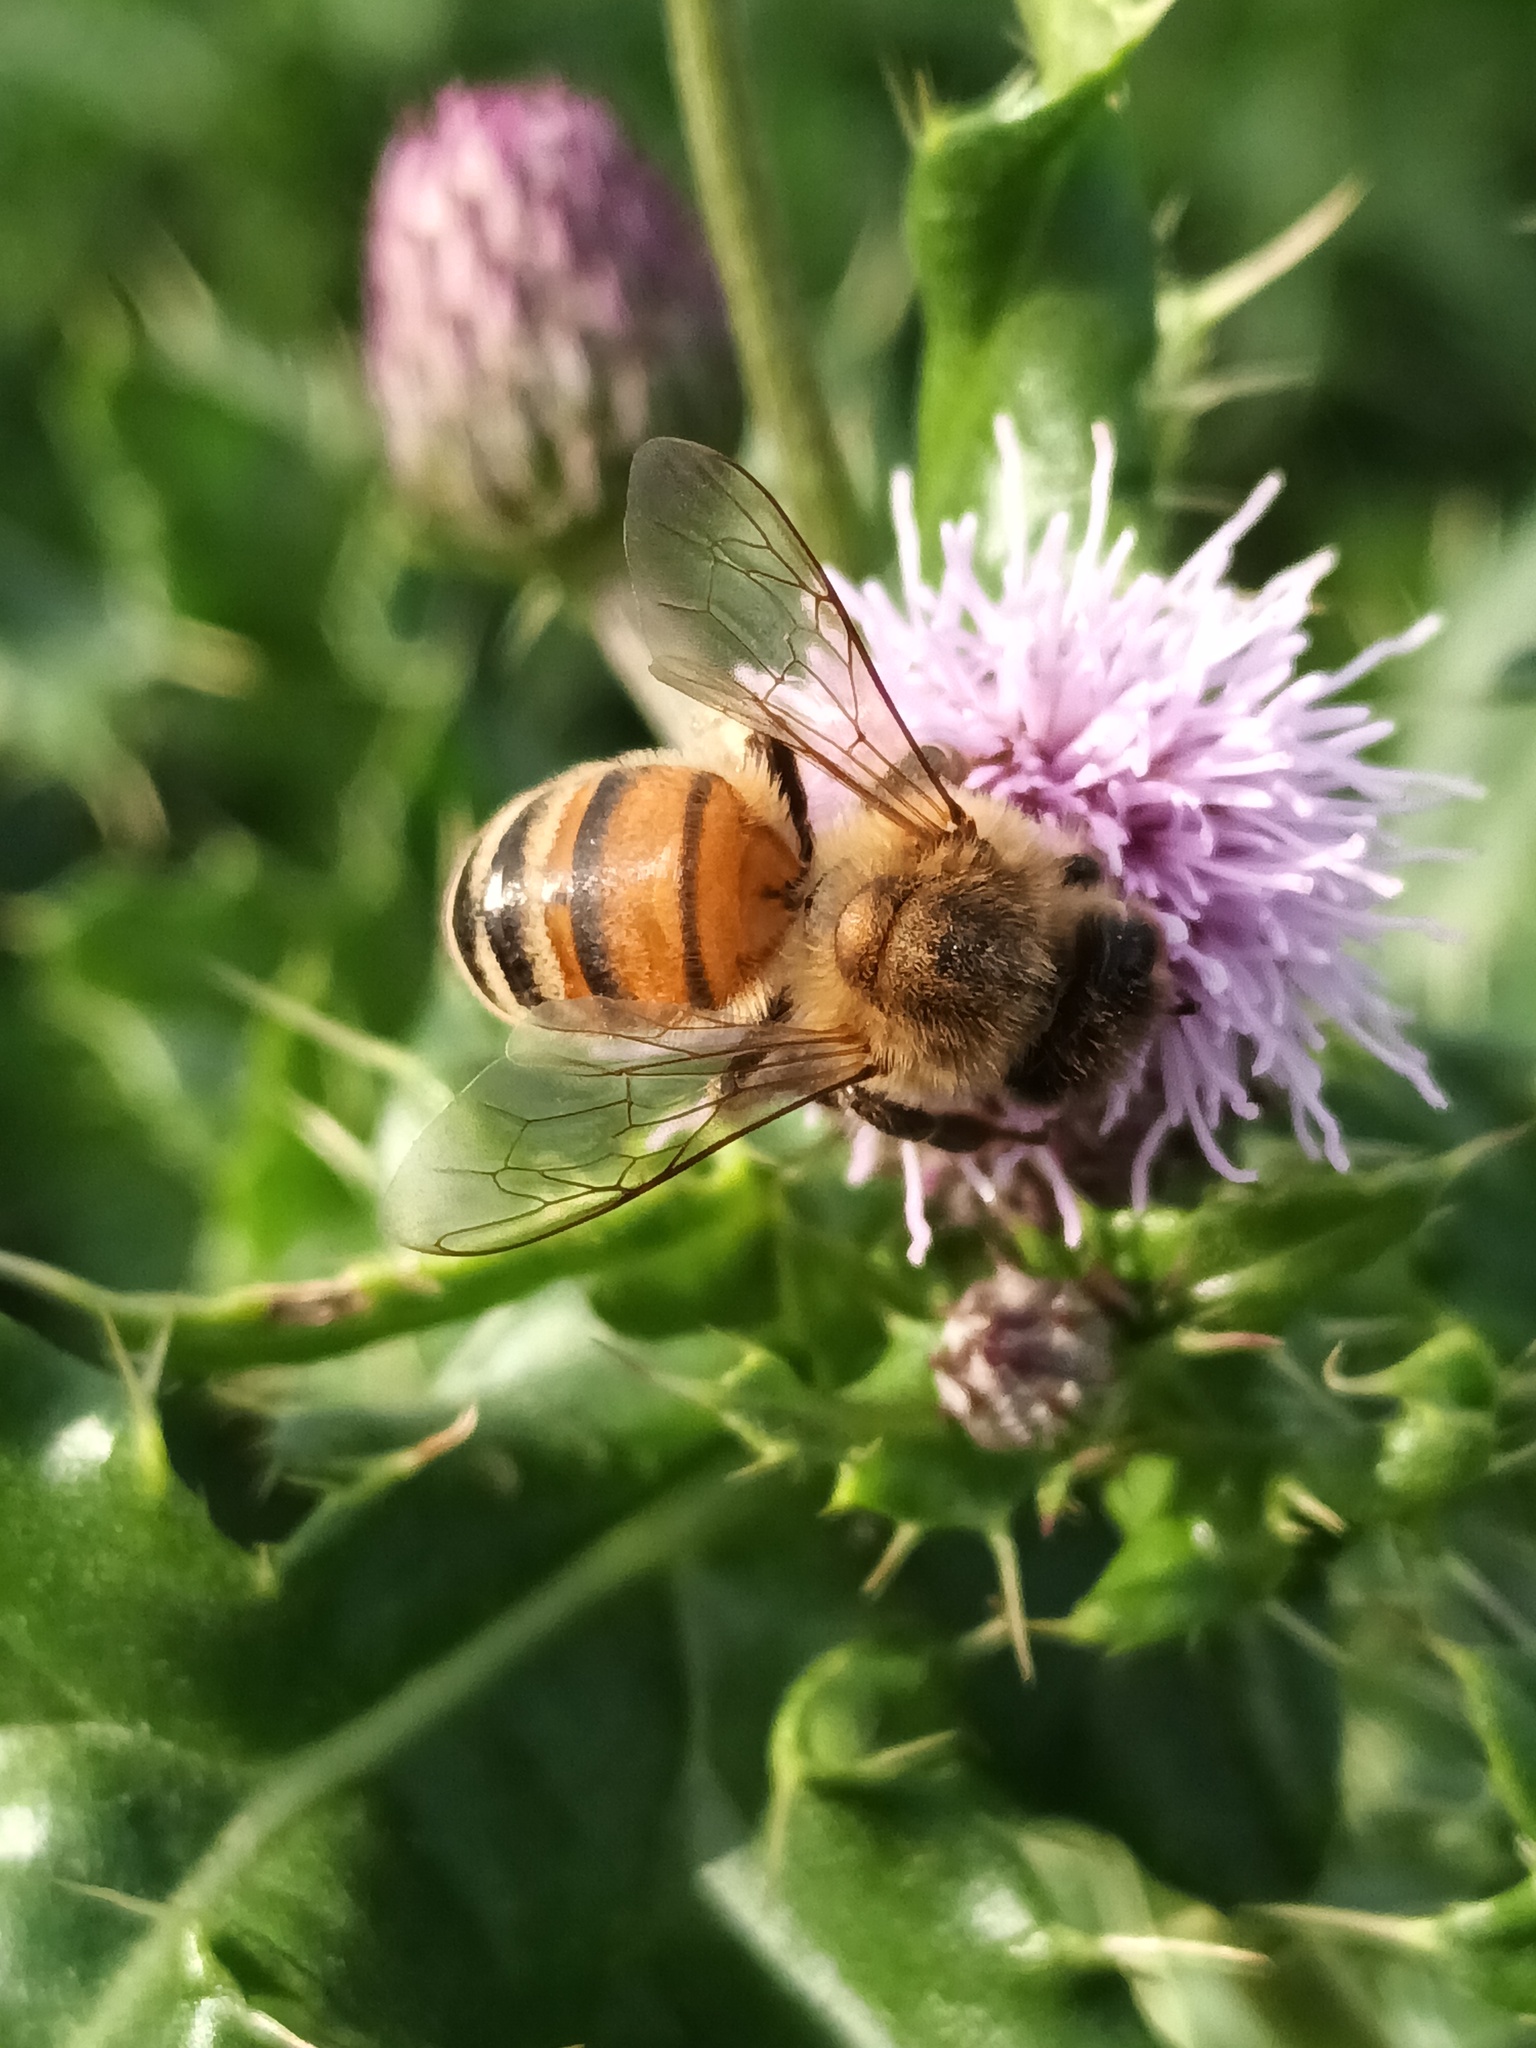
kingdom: Animalia
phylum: Arthropoda
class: Insecta
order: Hymenoptera
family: Apidae
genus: Apis
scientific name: Apis mellifera
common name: Honey bee
